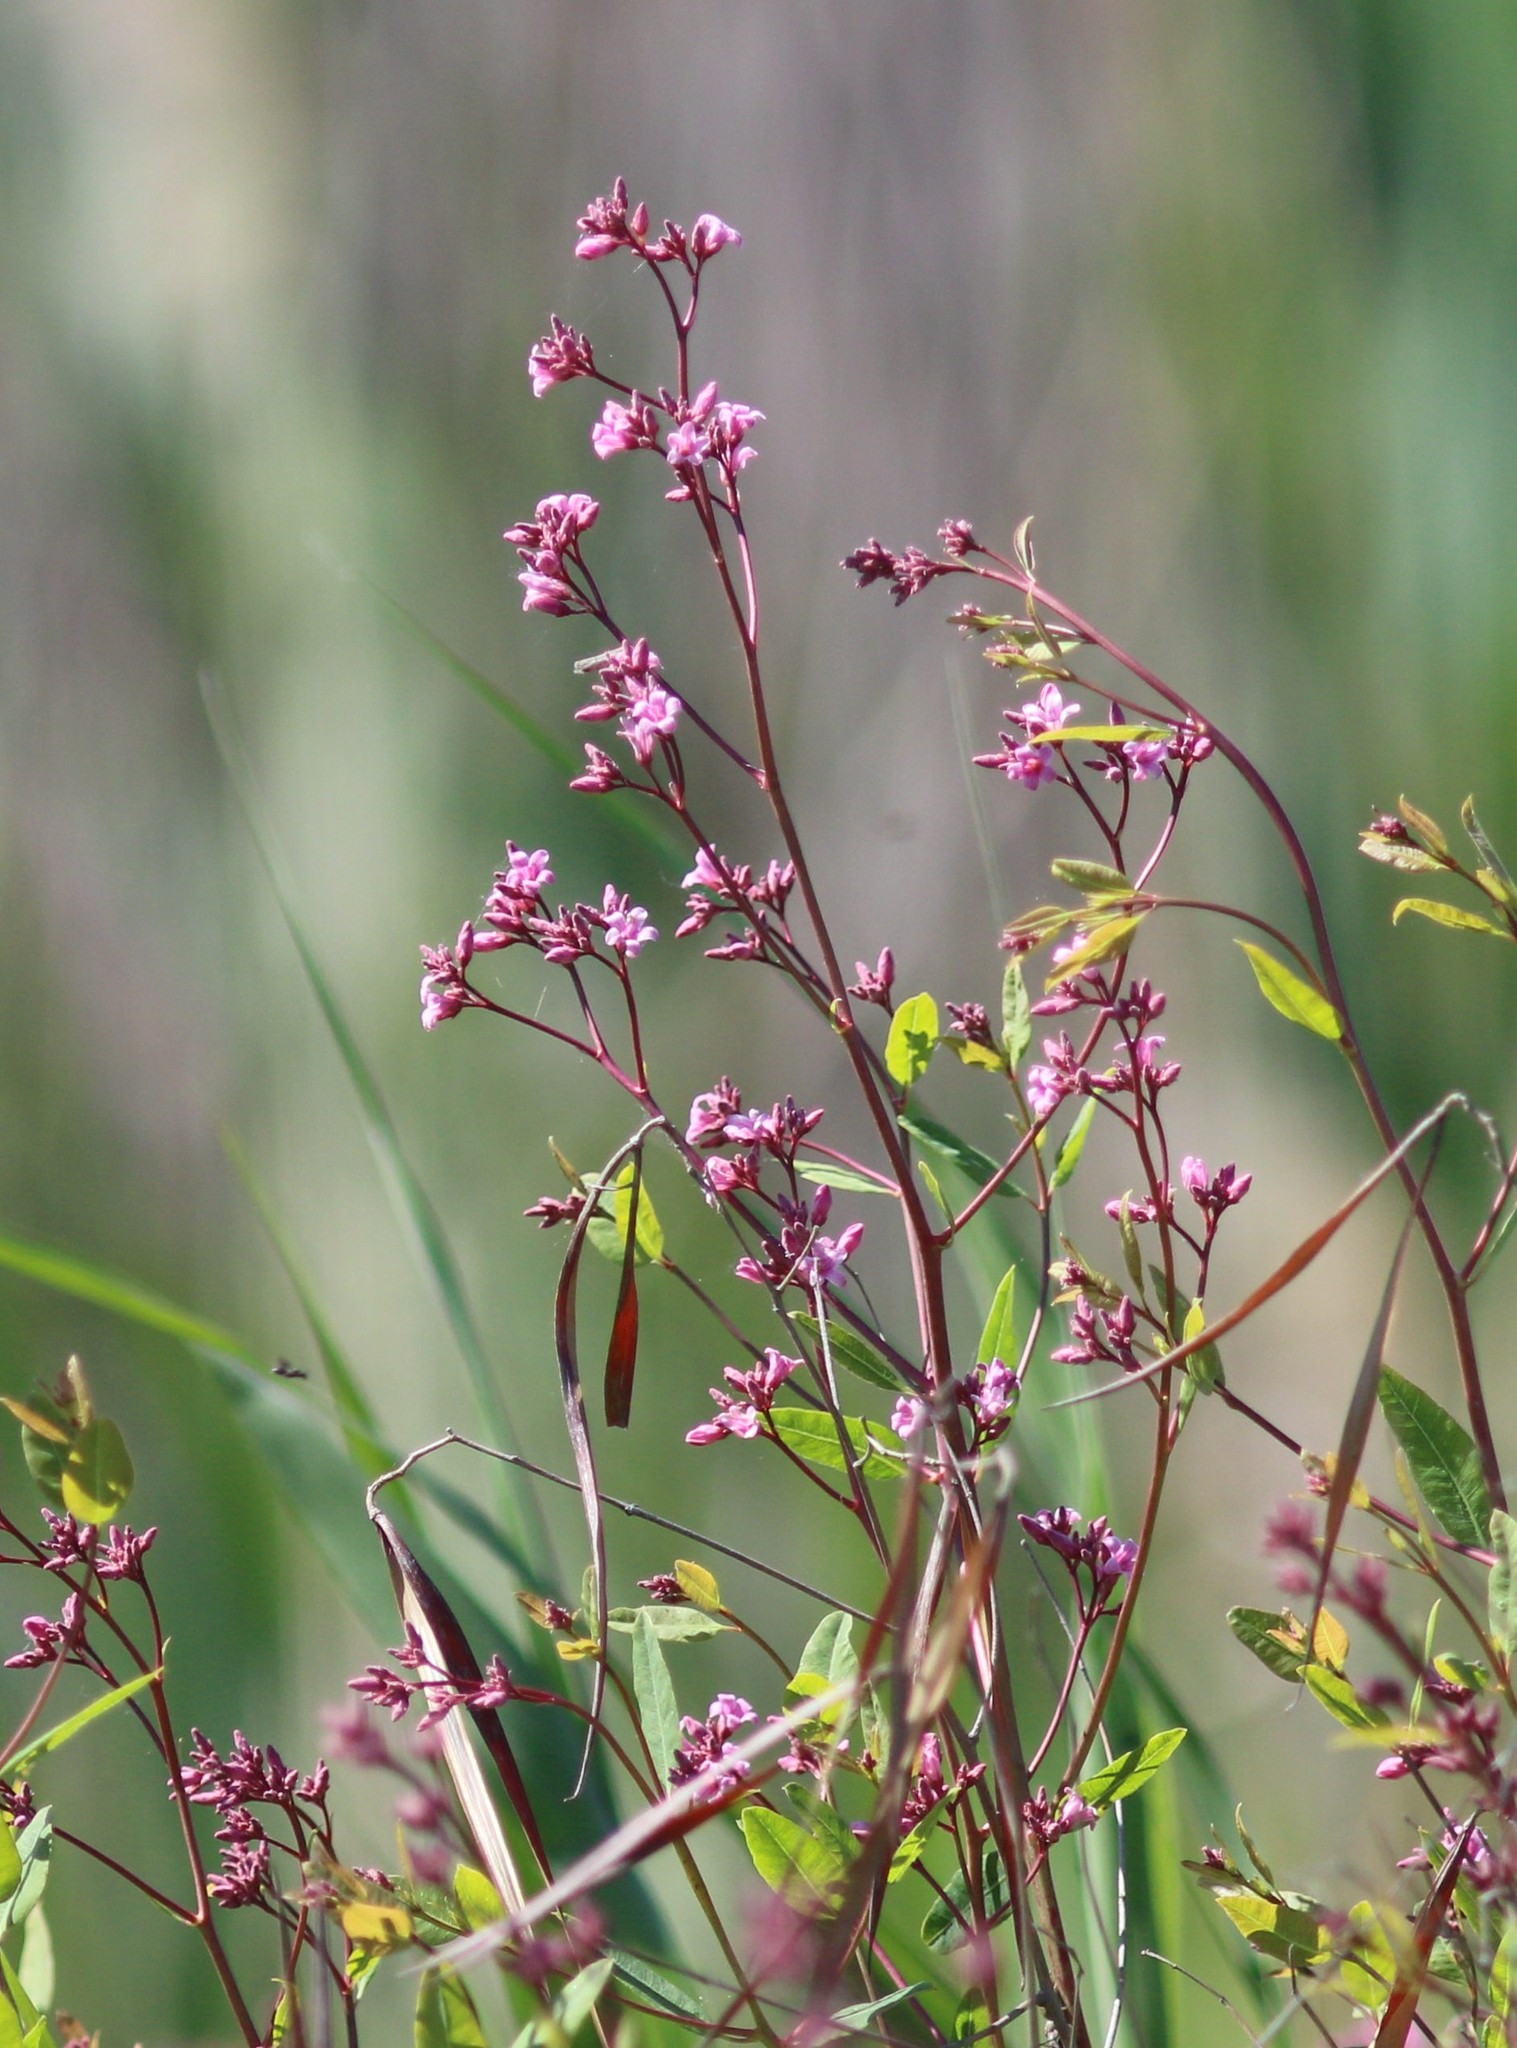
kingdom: Plantae
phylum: Tracheophyta
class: Magnoliopsida
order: Gentianales
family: Apocynaceae
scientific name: Apocynaceae
